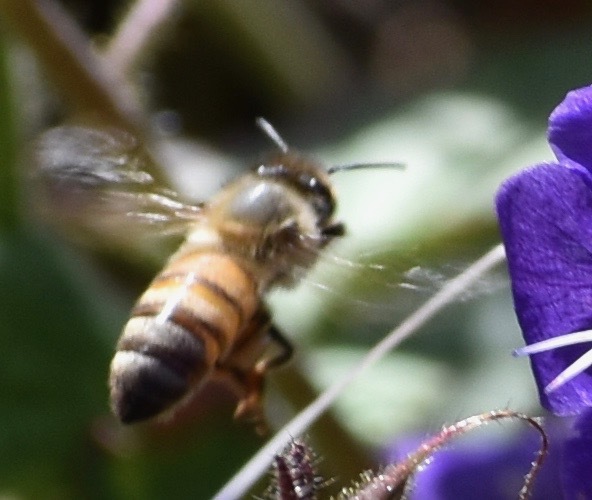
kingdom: Animalia
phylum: Arthropoda
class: Insecta
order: Hymenoptera
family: Apidae
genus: Apis
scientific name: Apis mellifera
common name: Honey bee
